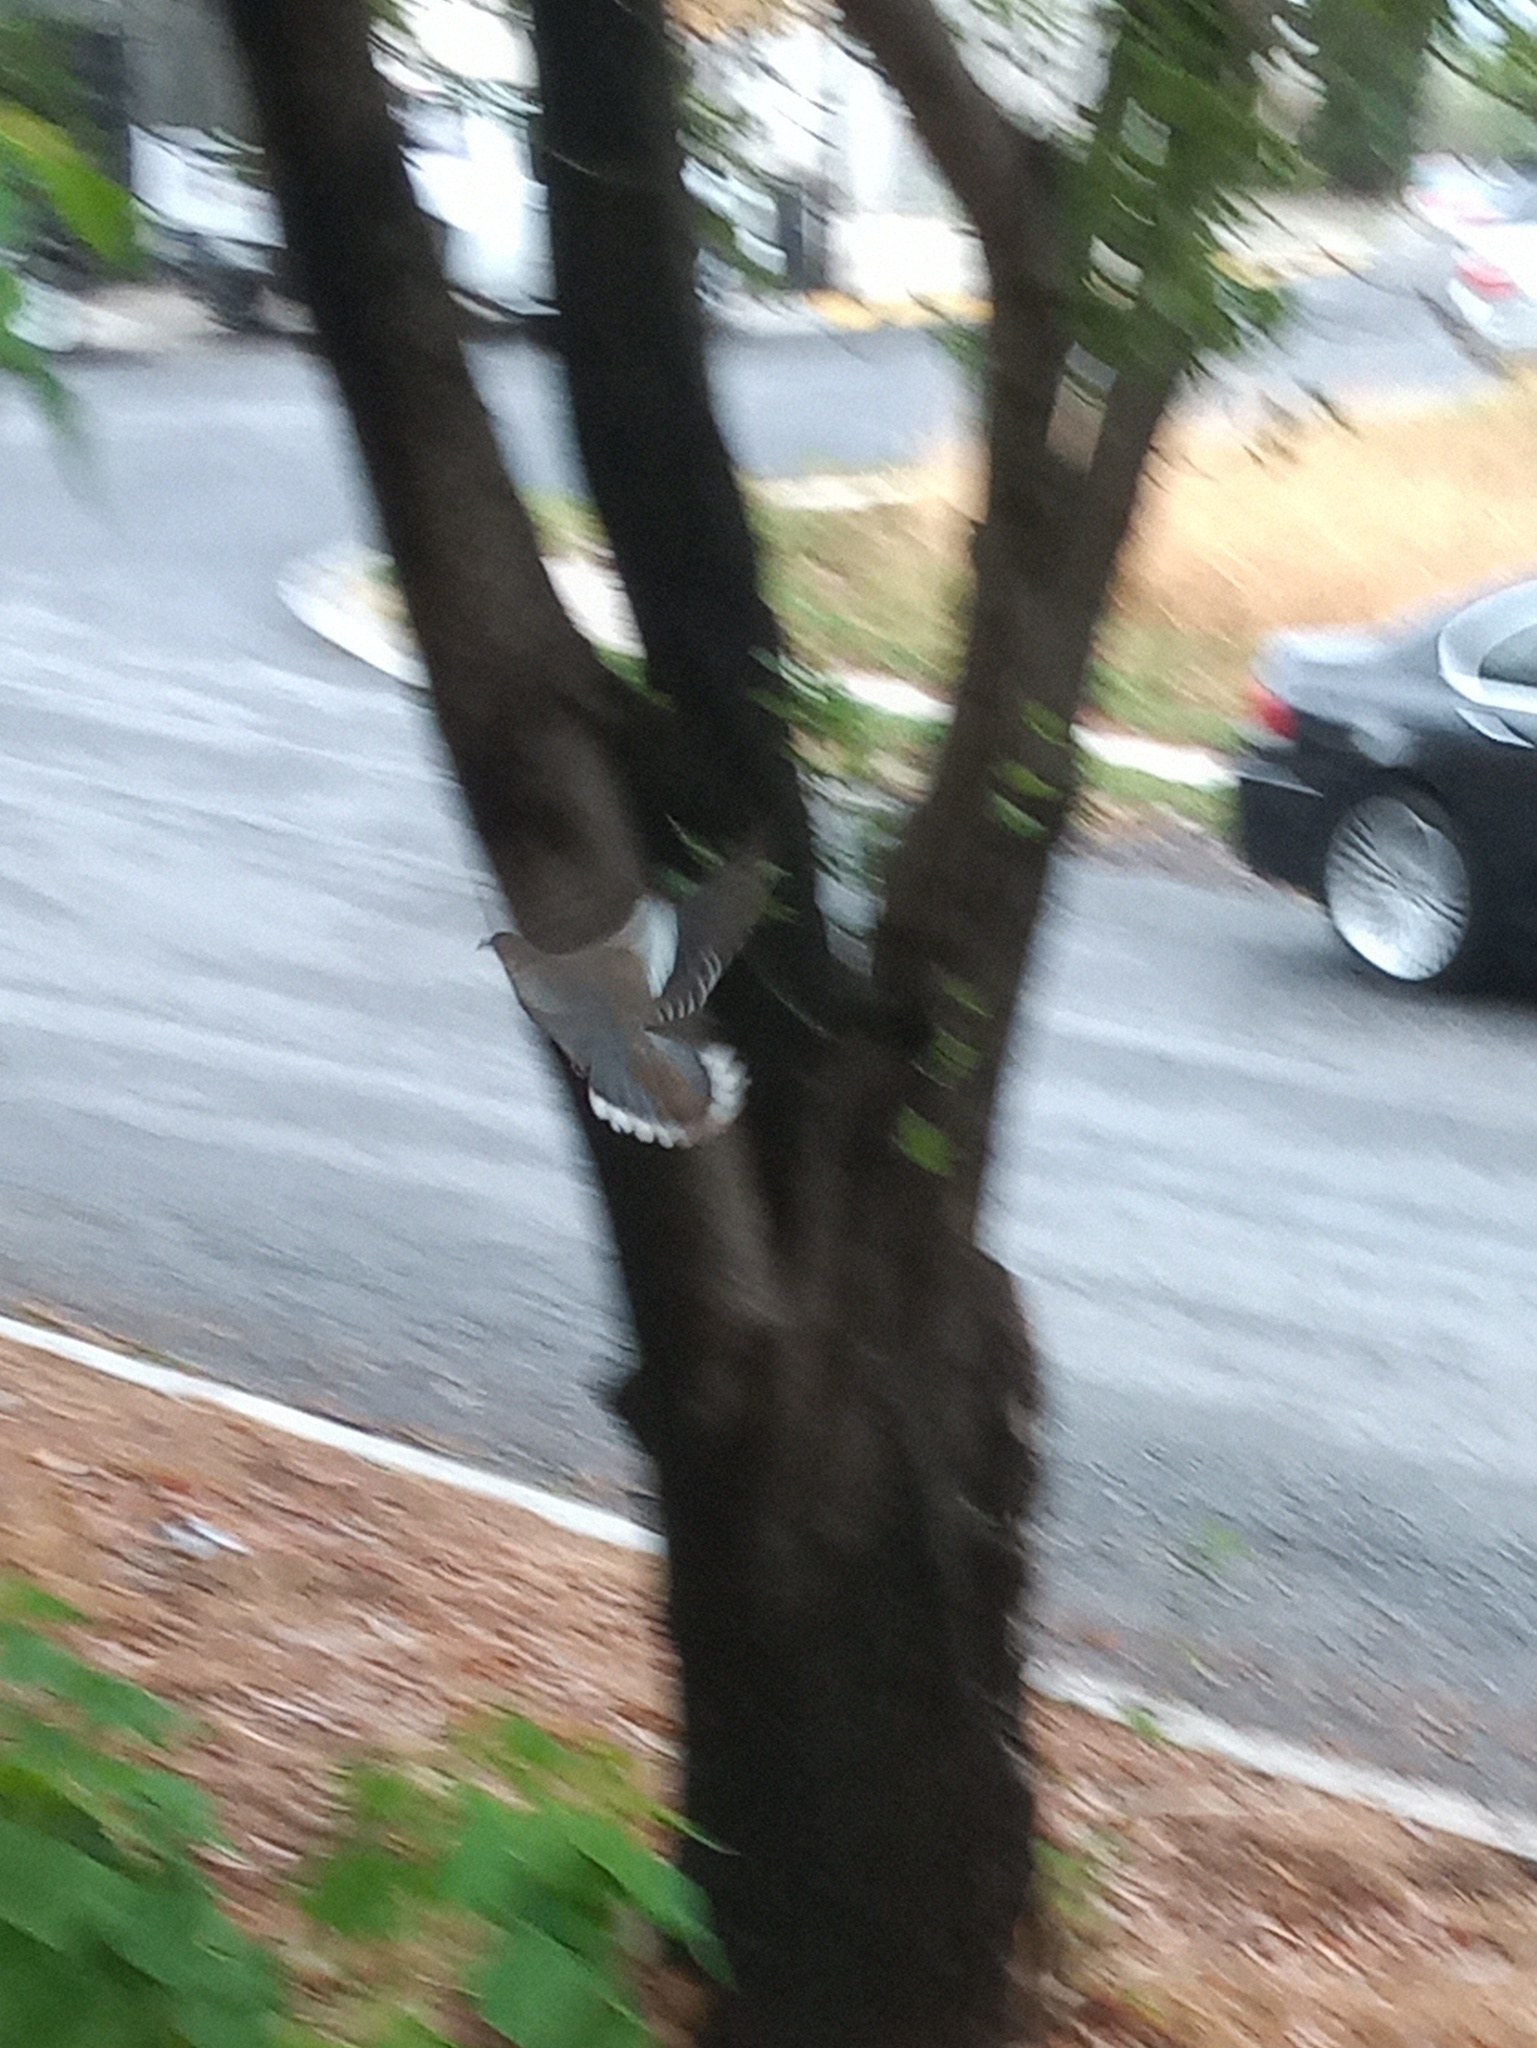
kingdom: Animalia
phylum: Chordata
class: Aves
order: Columbiformes
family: Columbidae
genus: Zenaida
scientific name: Zenaida asiatica
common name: White-winged dove
